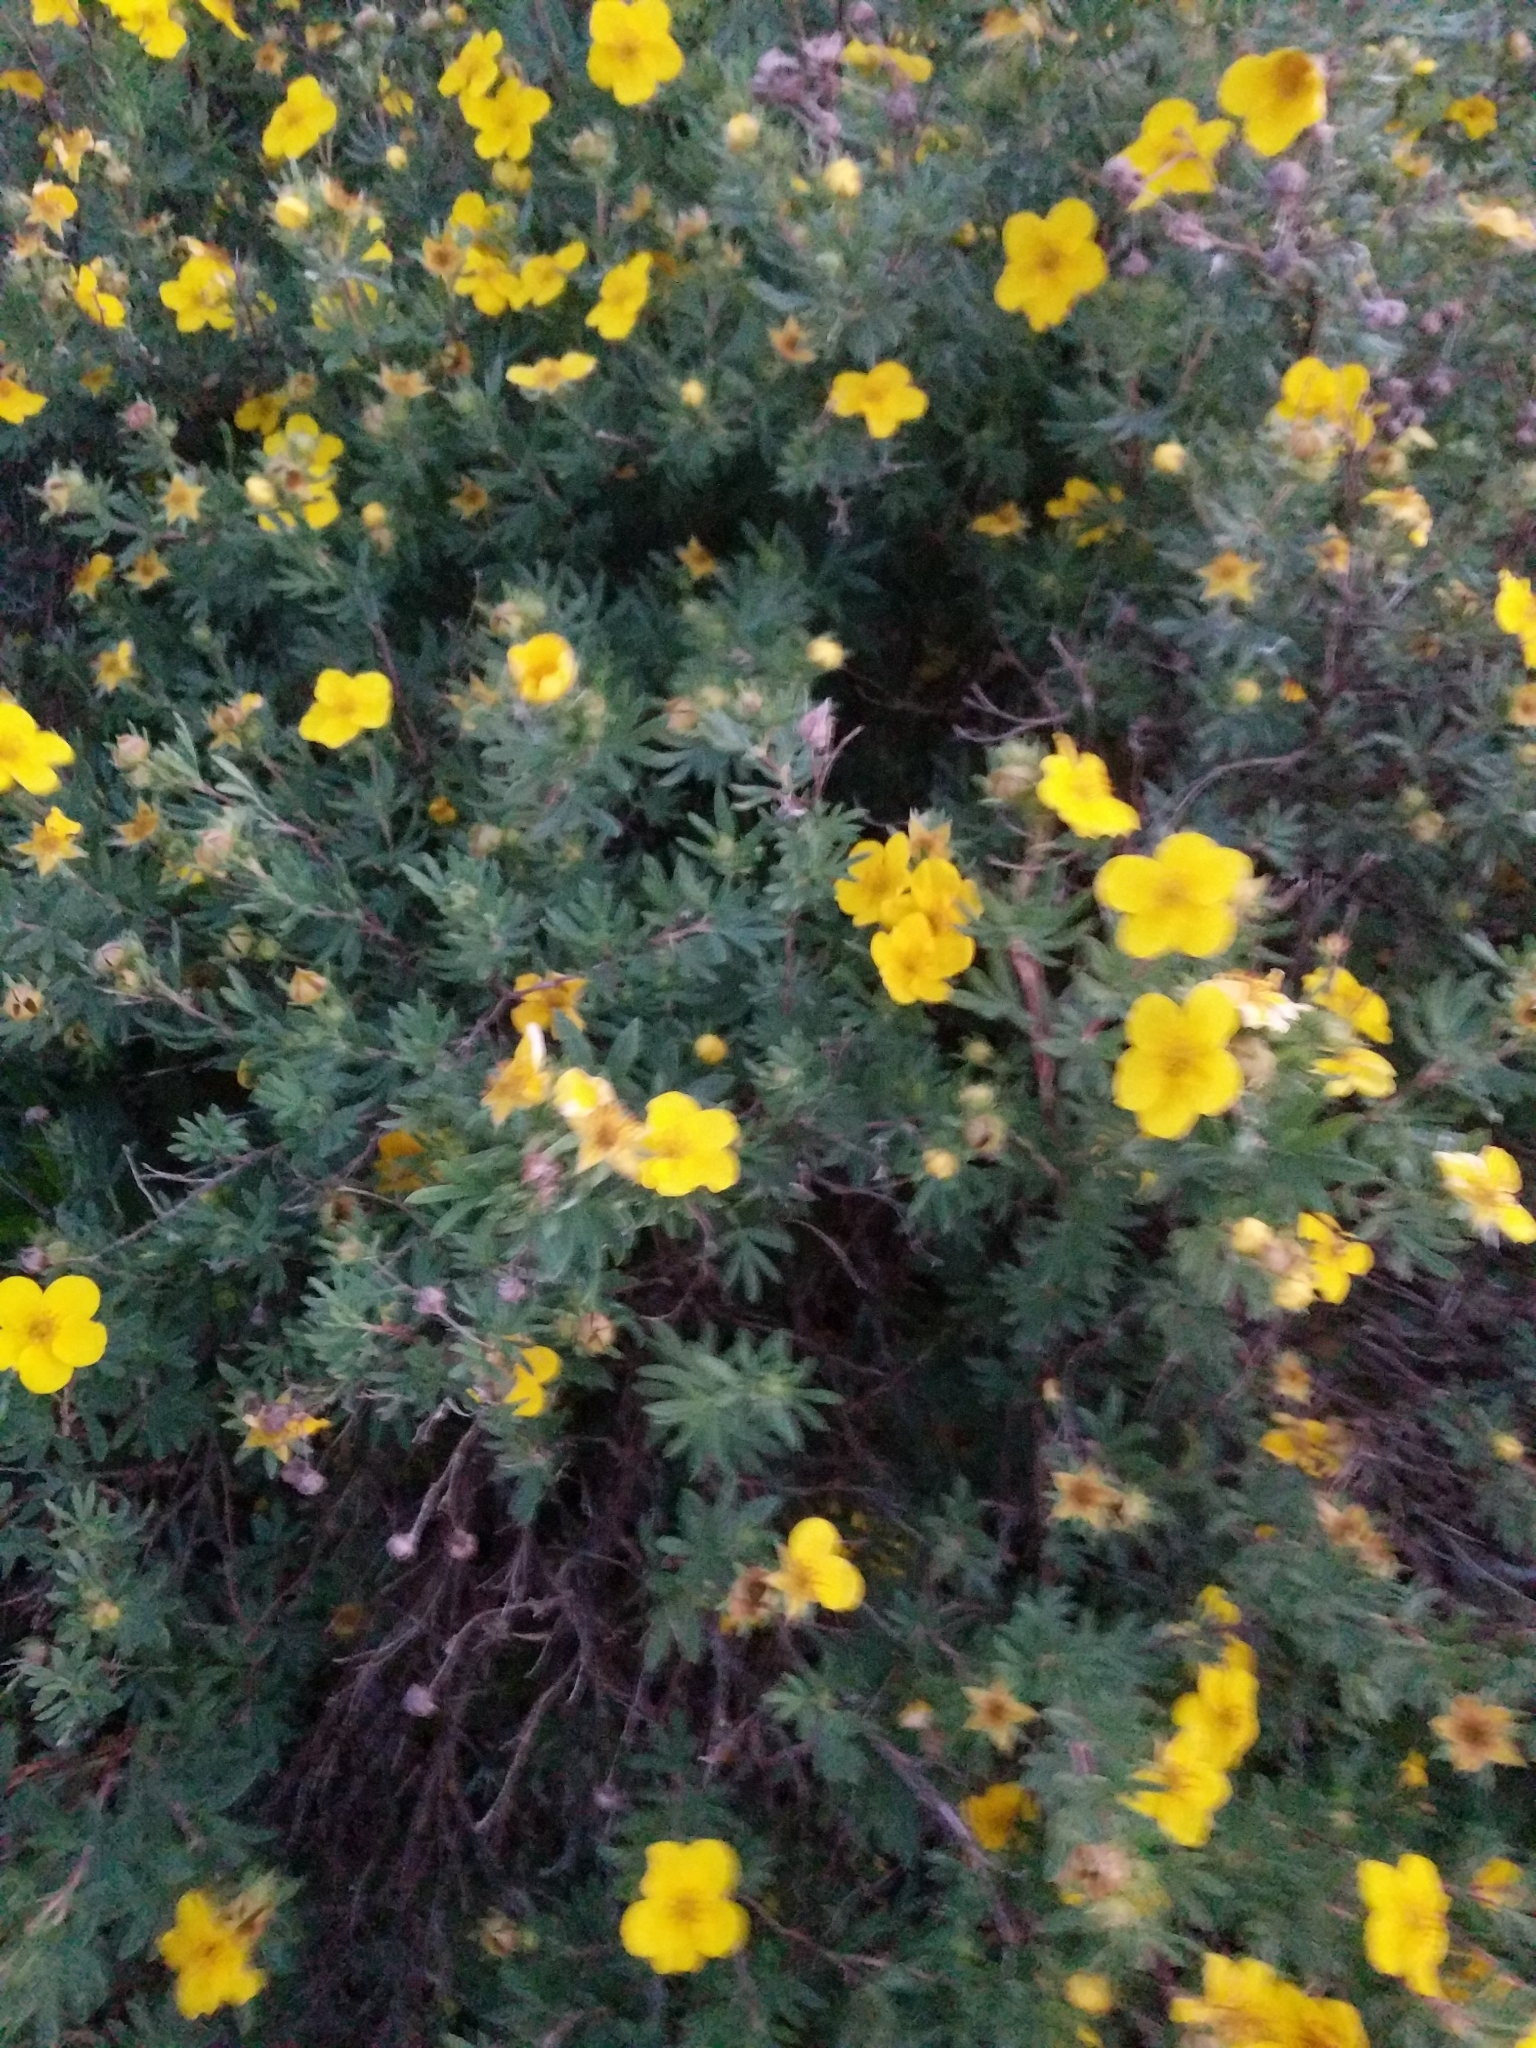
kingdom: Plantae
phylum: Tracheophyta
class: Magnoliopsida
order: Rosales
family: Rosaceae
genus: Dasiphora
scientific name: Dasiphora fruticosa
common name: Shrubby cinquefoil
